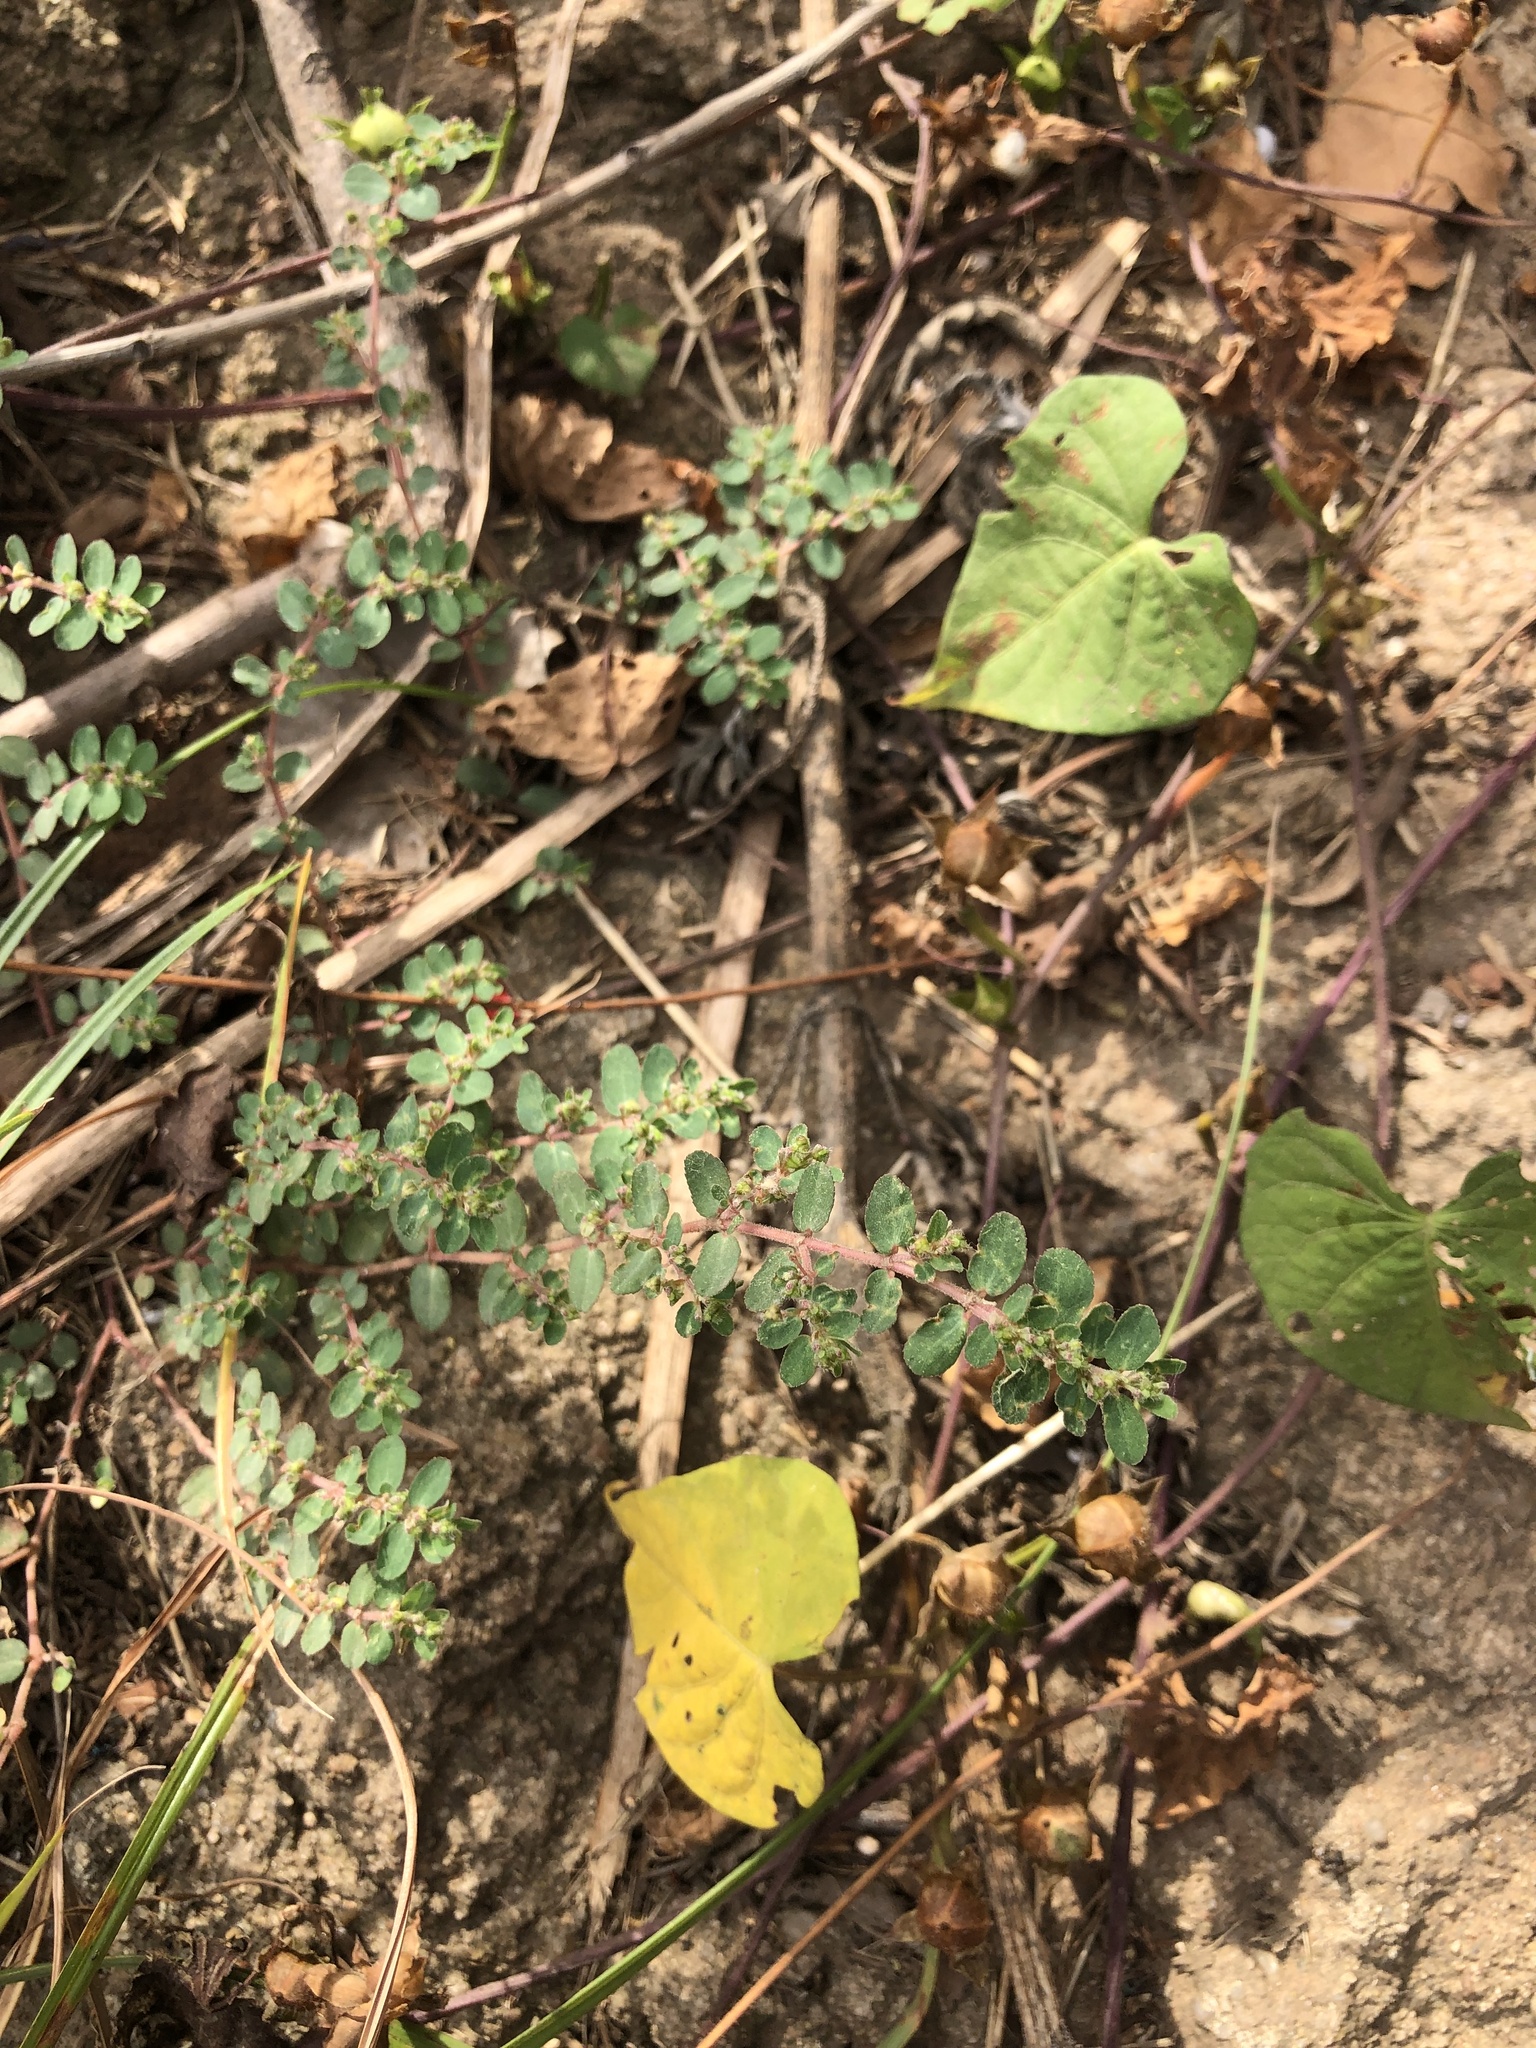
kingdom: Plantae
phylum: Tracheophyta
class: Magnoliopsida
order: Malpighiales
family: Euphorbiaceae
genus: Euphorbia
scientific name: Euphorbia prostrata
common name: Prostrate sandmat
